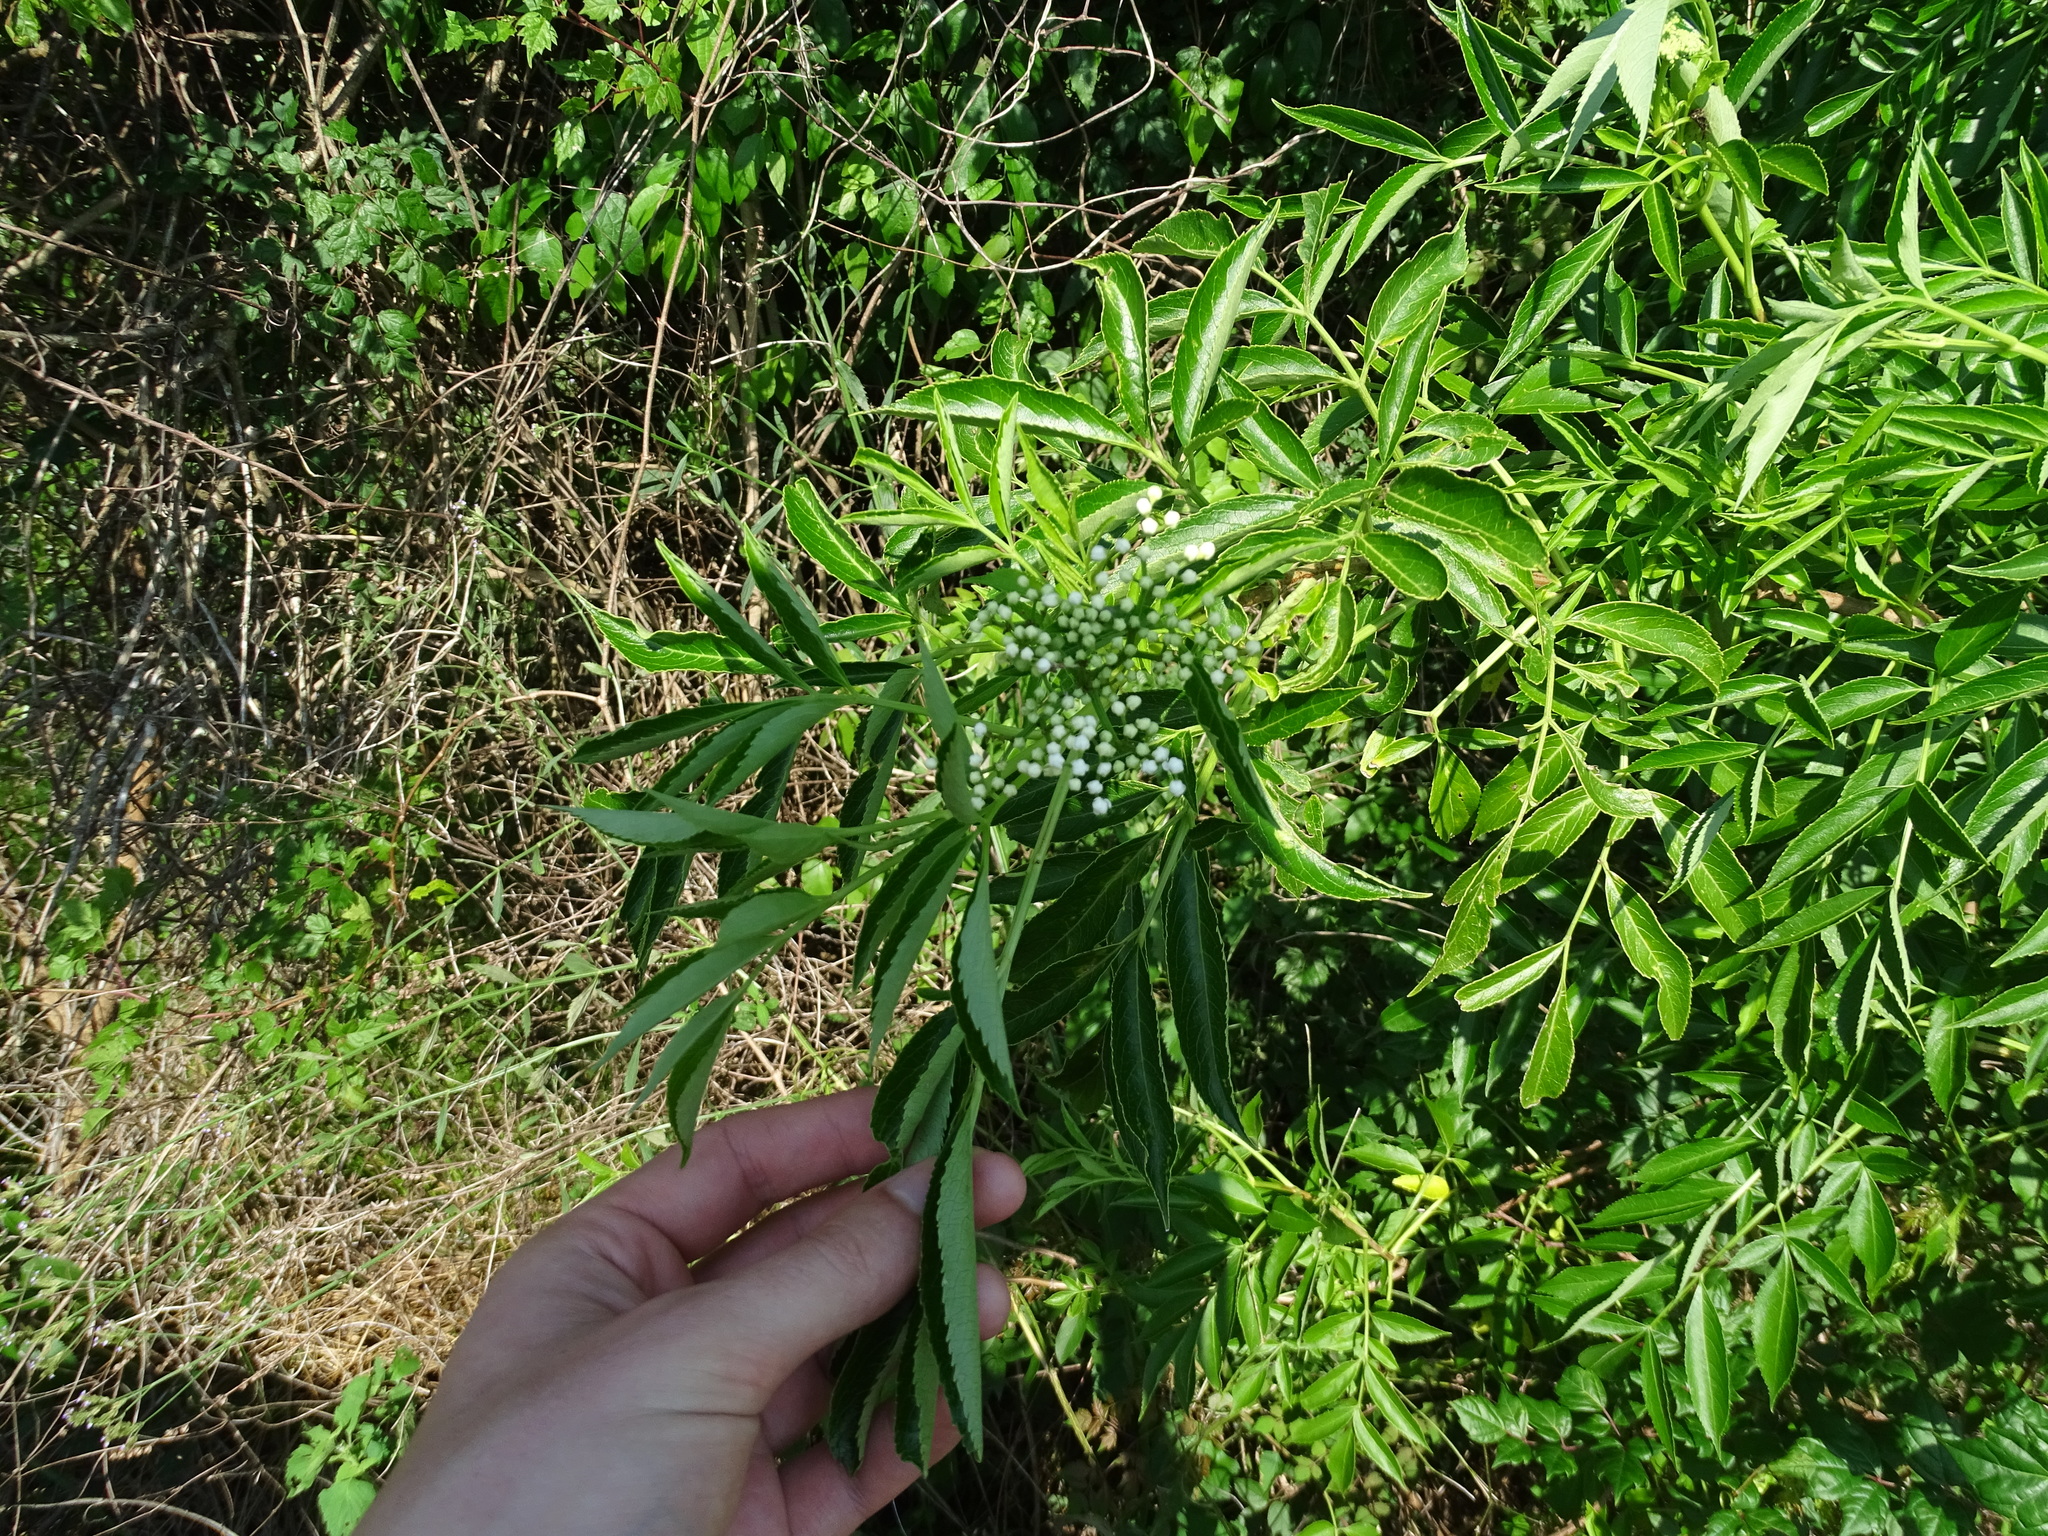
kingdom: Plantae
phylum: Tracheophyta
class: Magnoliopsida
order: Dipsacales
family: Viburnaceae
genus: Sambucus
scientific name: Sambucus canadensis
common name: American elder
